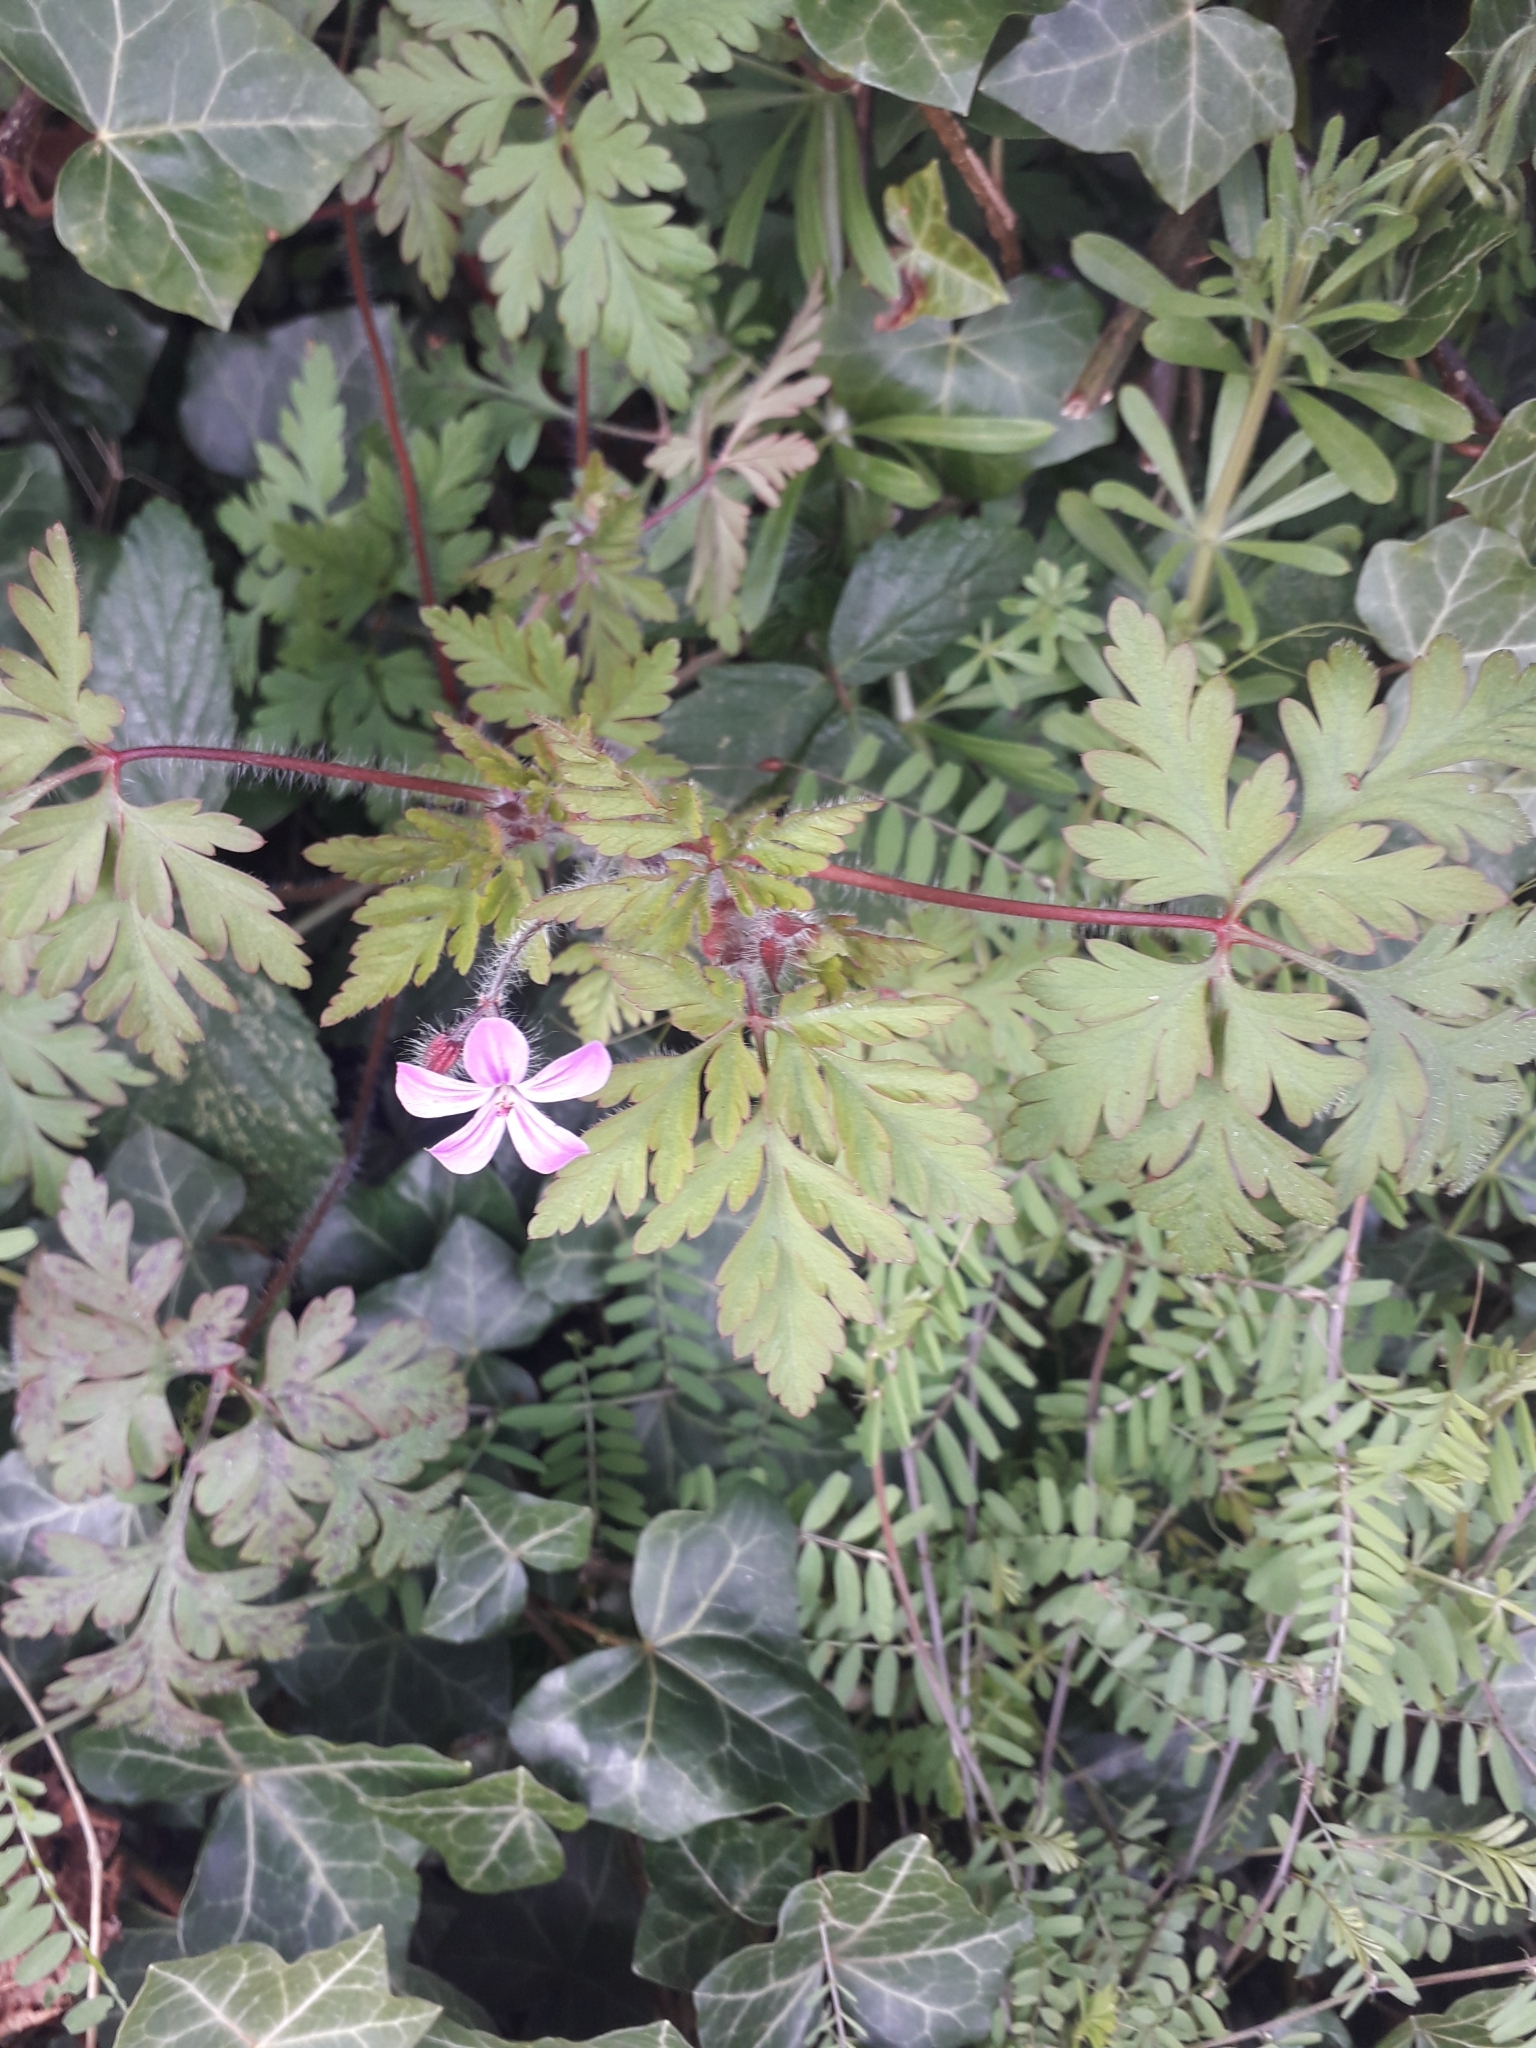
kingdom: Plantae
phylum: Tracheophyta
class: Magnoliopsida
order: Geraniales
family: Geraniaceae
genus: Geranium
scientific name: Geranium robertianum
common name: Herb-robert
